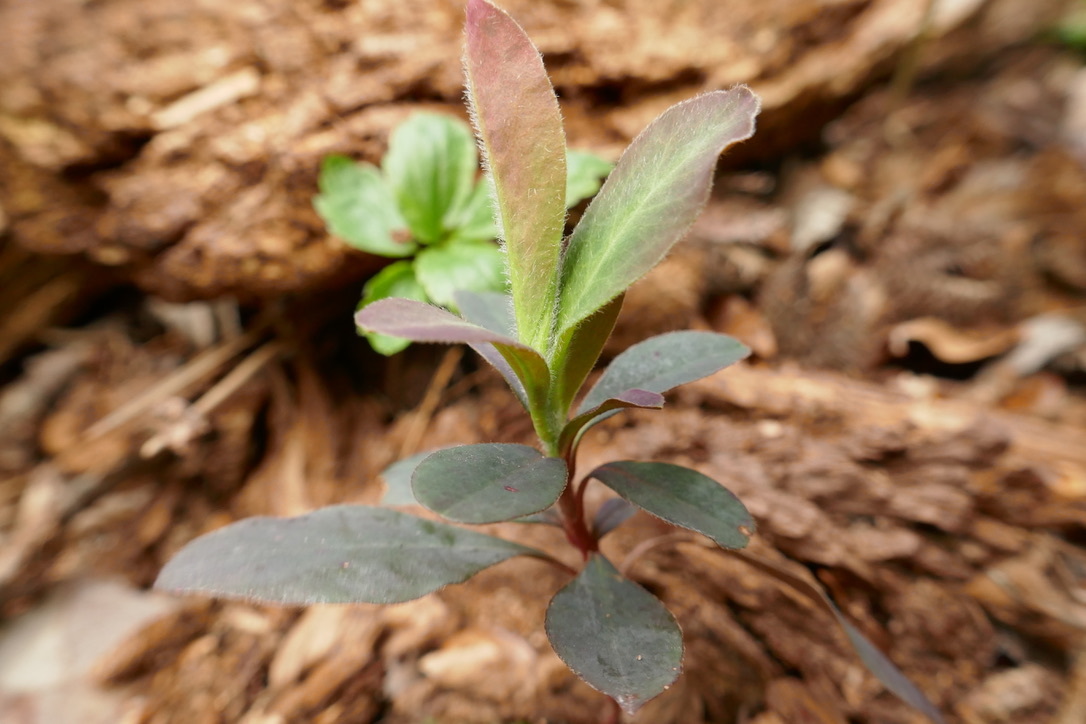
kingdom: Plantae
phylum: Tracheophyta
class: Magnoliopsida
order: Malpighiales
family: Euphorbiaceae
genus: Euphorbia
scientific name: Euphorbia amygdaloides
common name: Wood spurge
